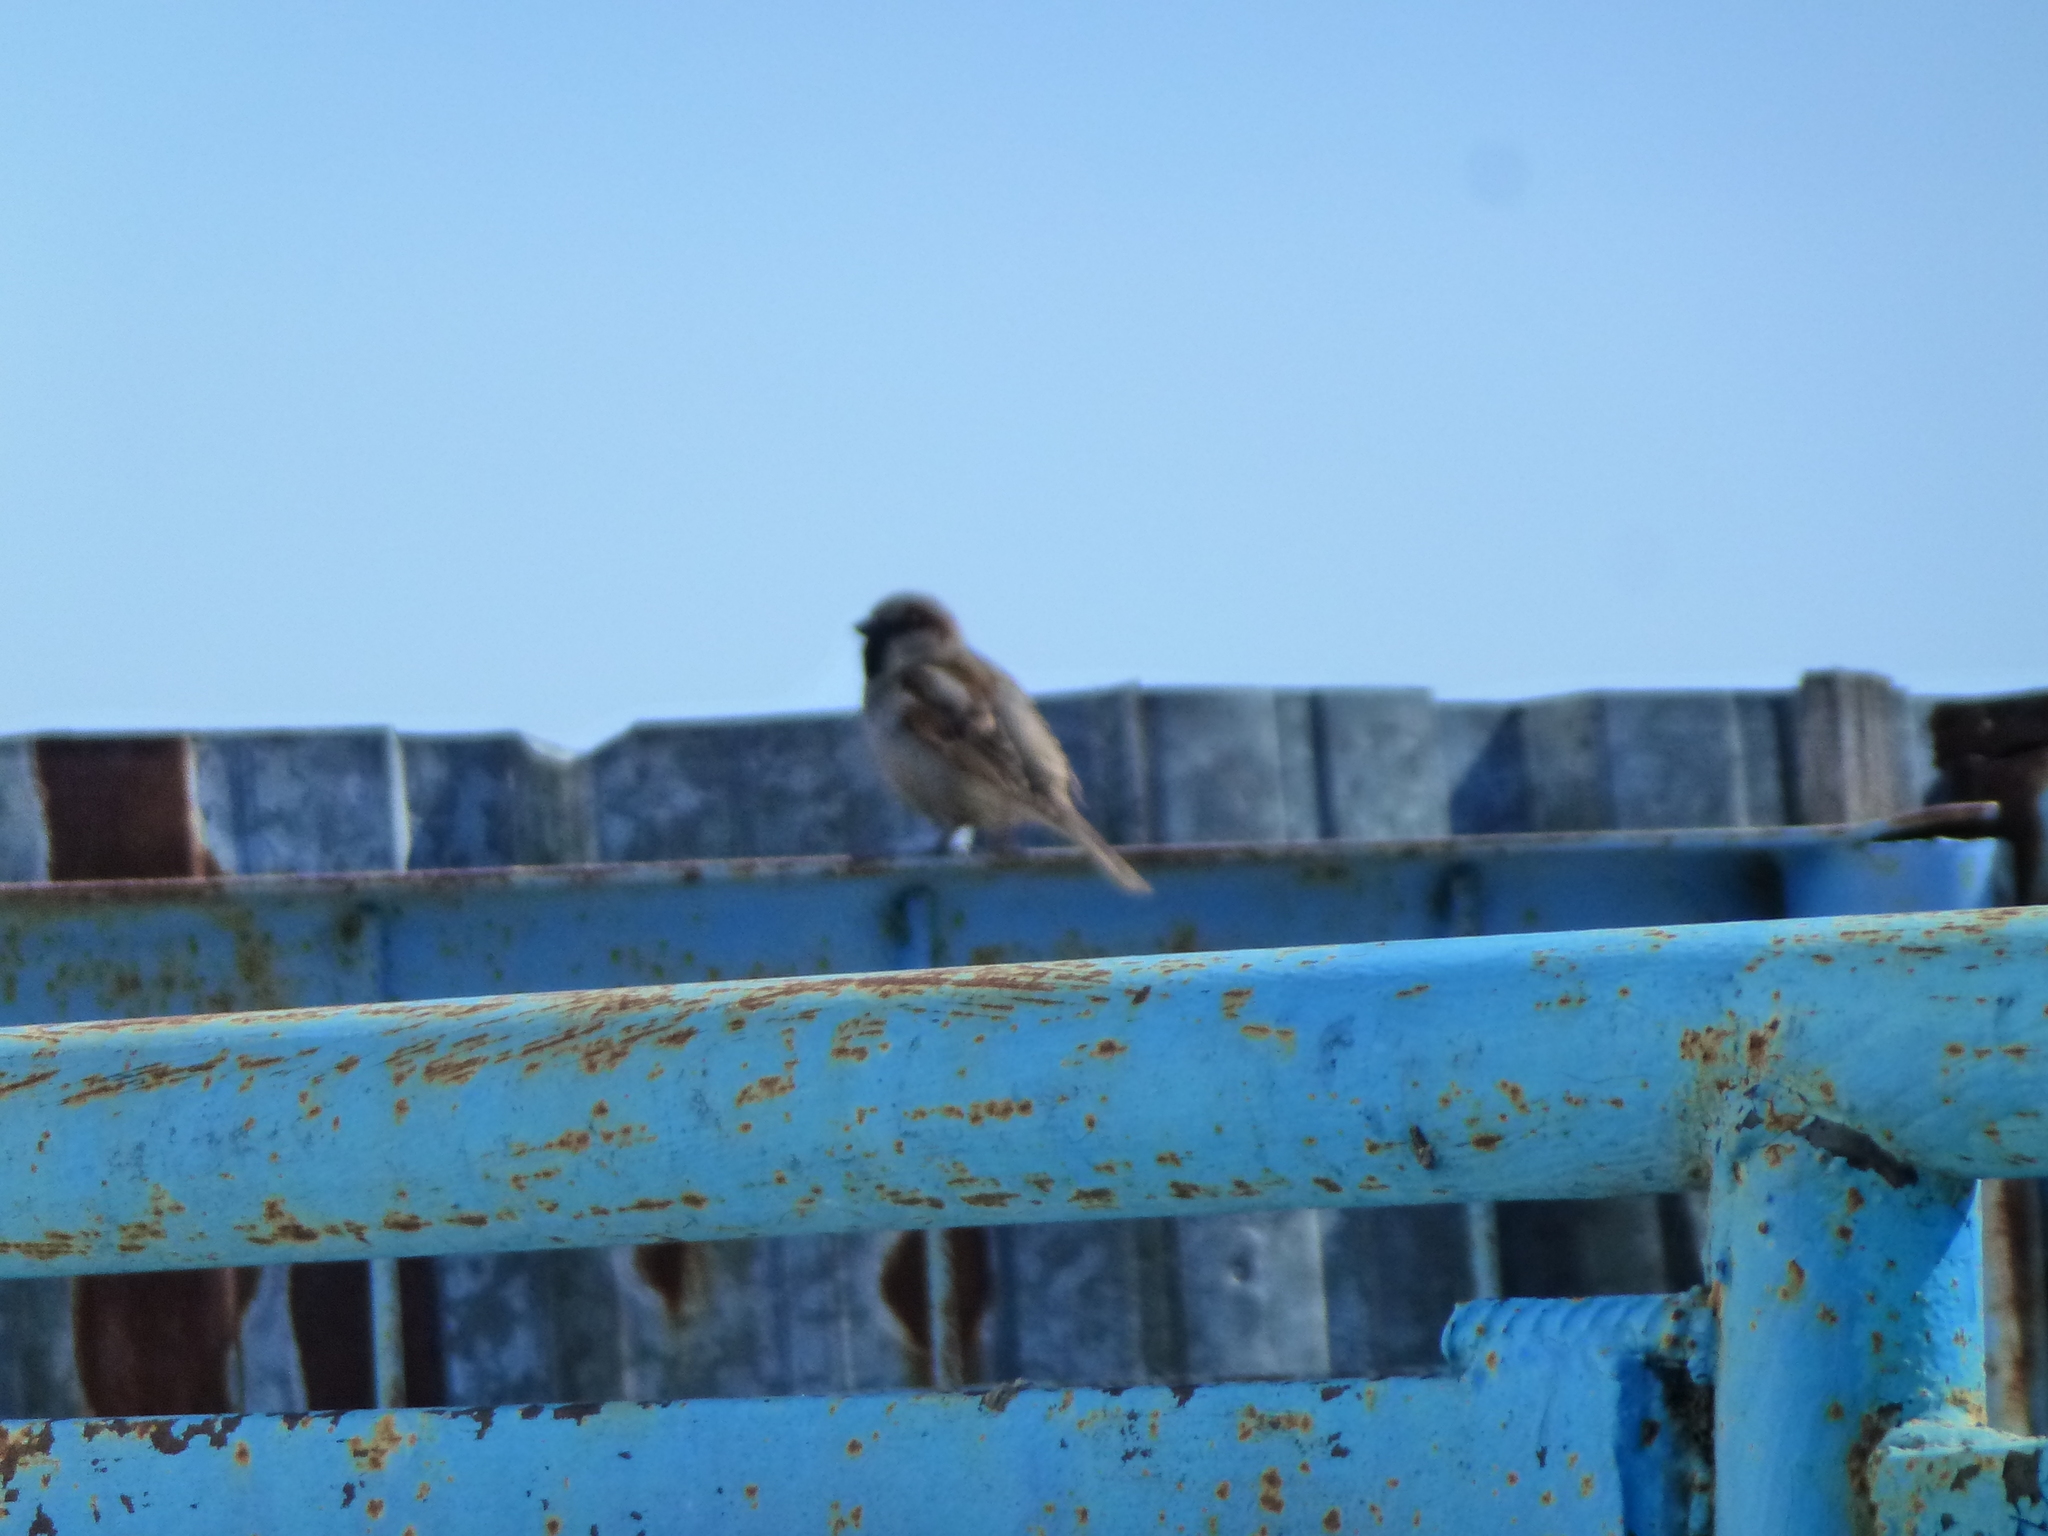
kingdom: Animalia
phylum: Chordata
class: Aves
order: Passeriformes
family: Passeridae
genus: Passer
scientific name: Passer domesticus
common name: House sparrow
